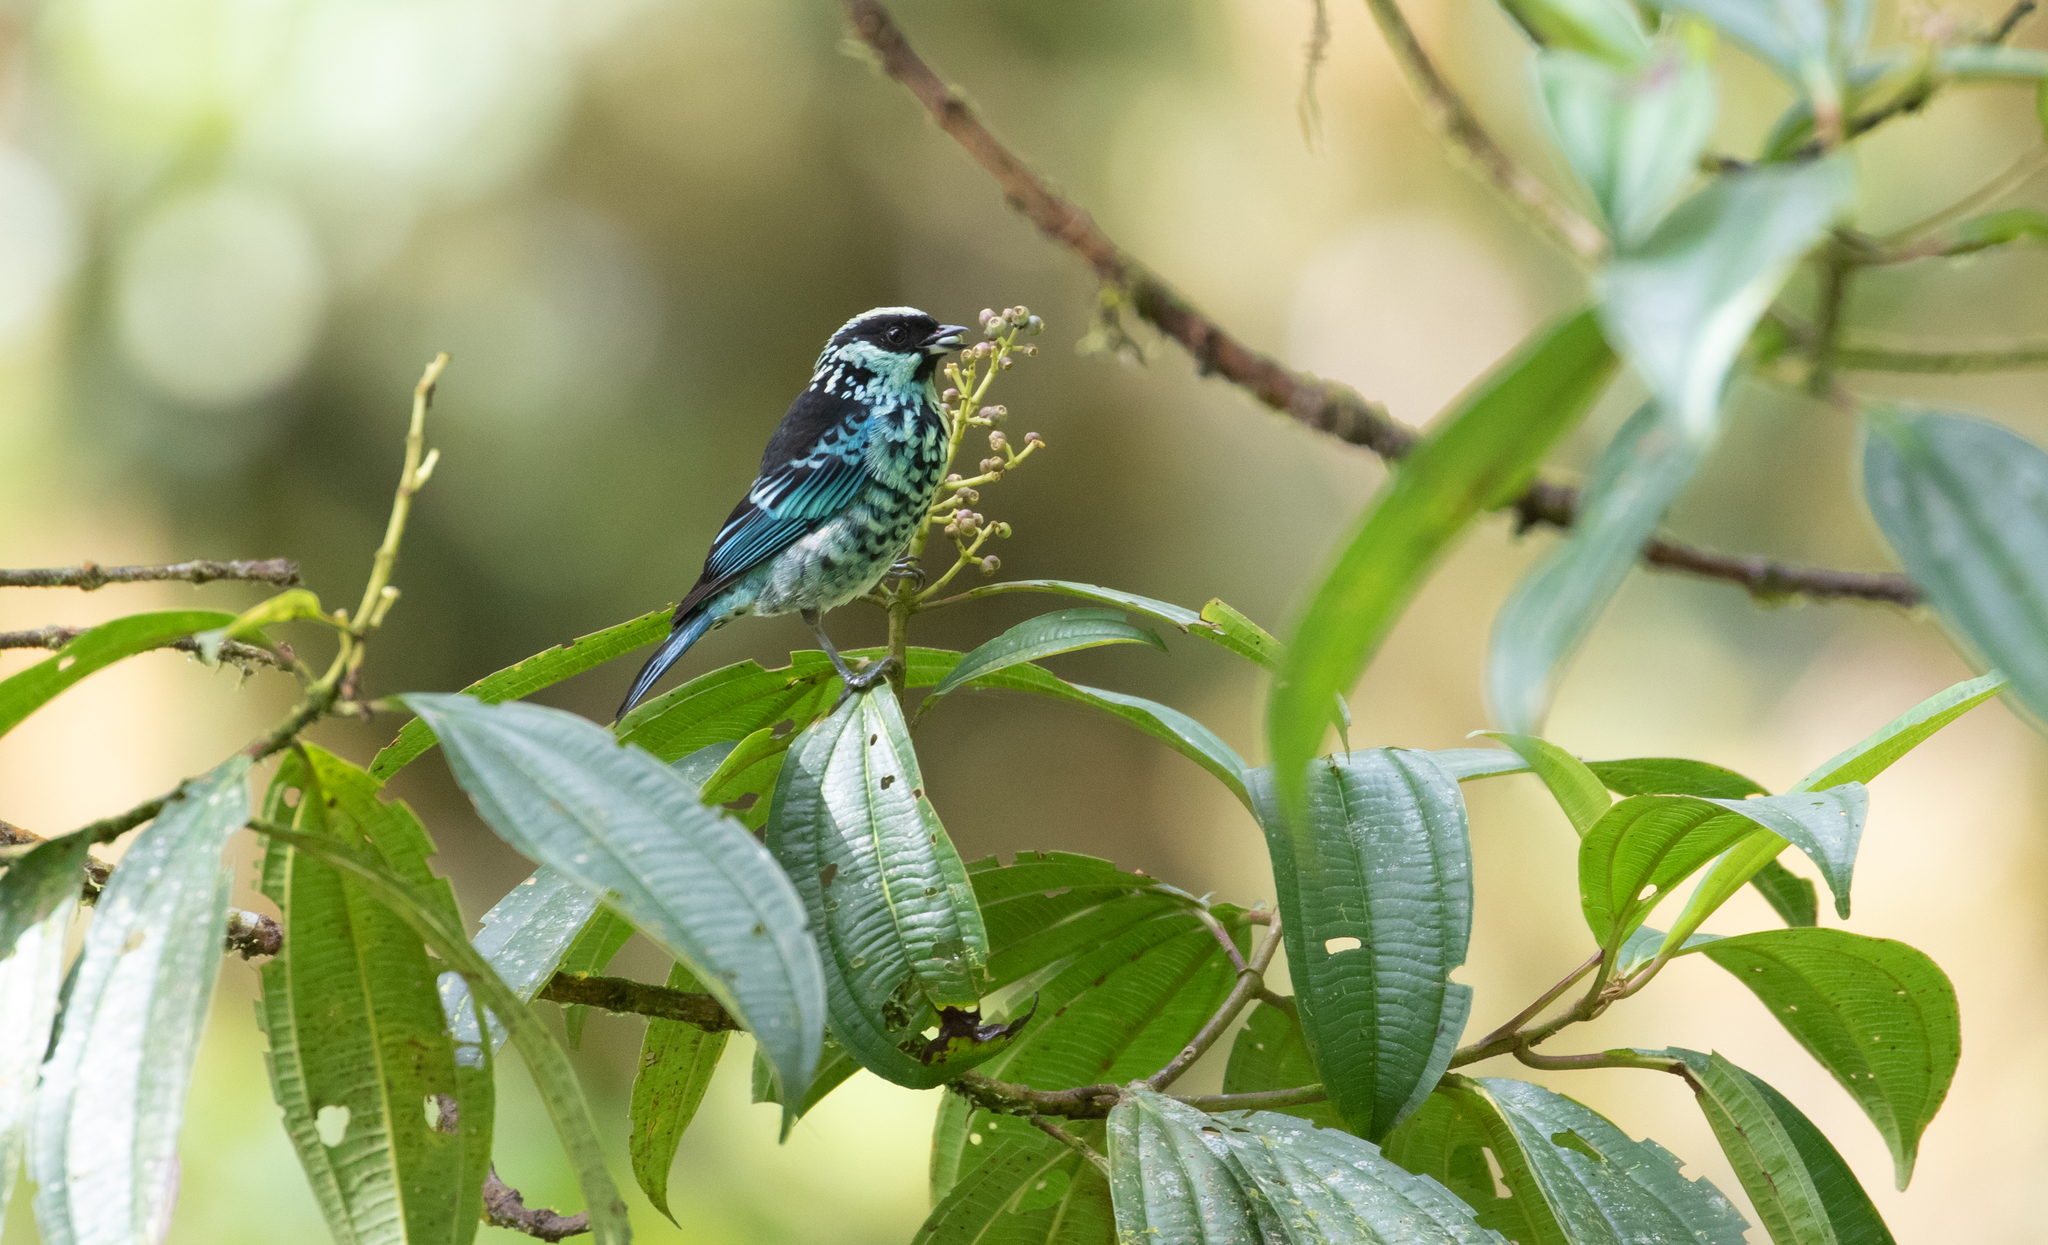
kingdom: Animalia
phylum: Chordata
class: Aves
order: Passeriformes
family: Thraupidae
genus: Tangara
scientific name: Tangara nigroviridis
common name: Beryl-spangled tanager
